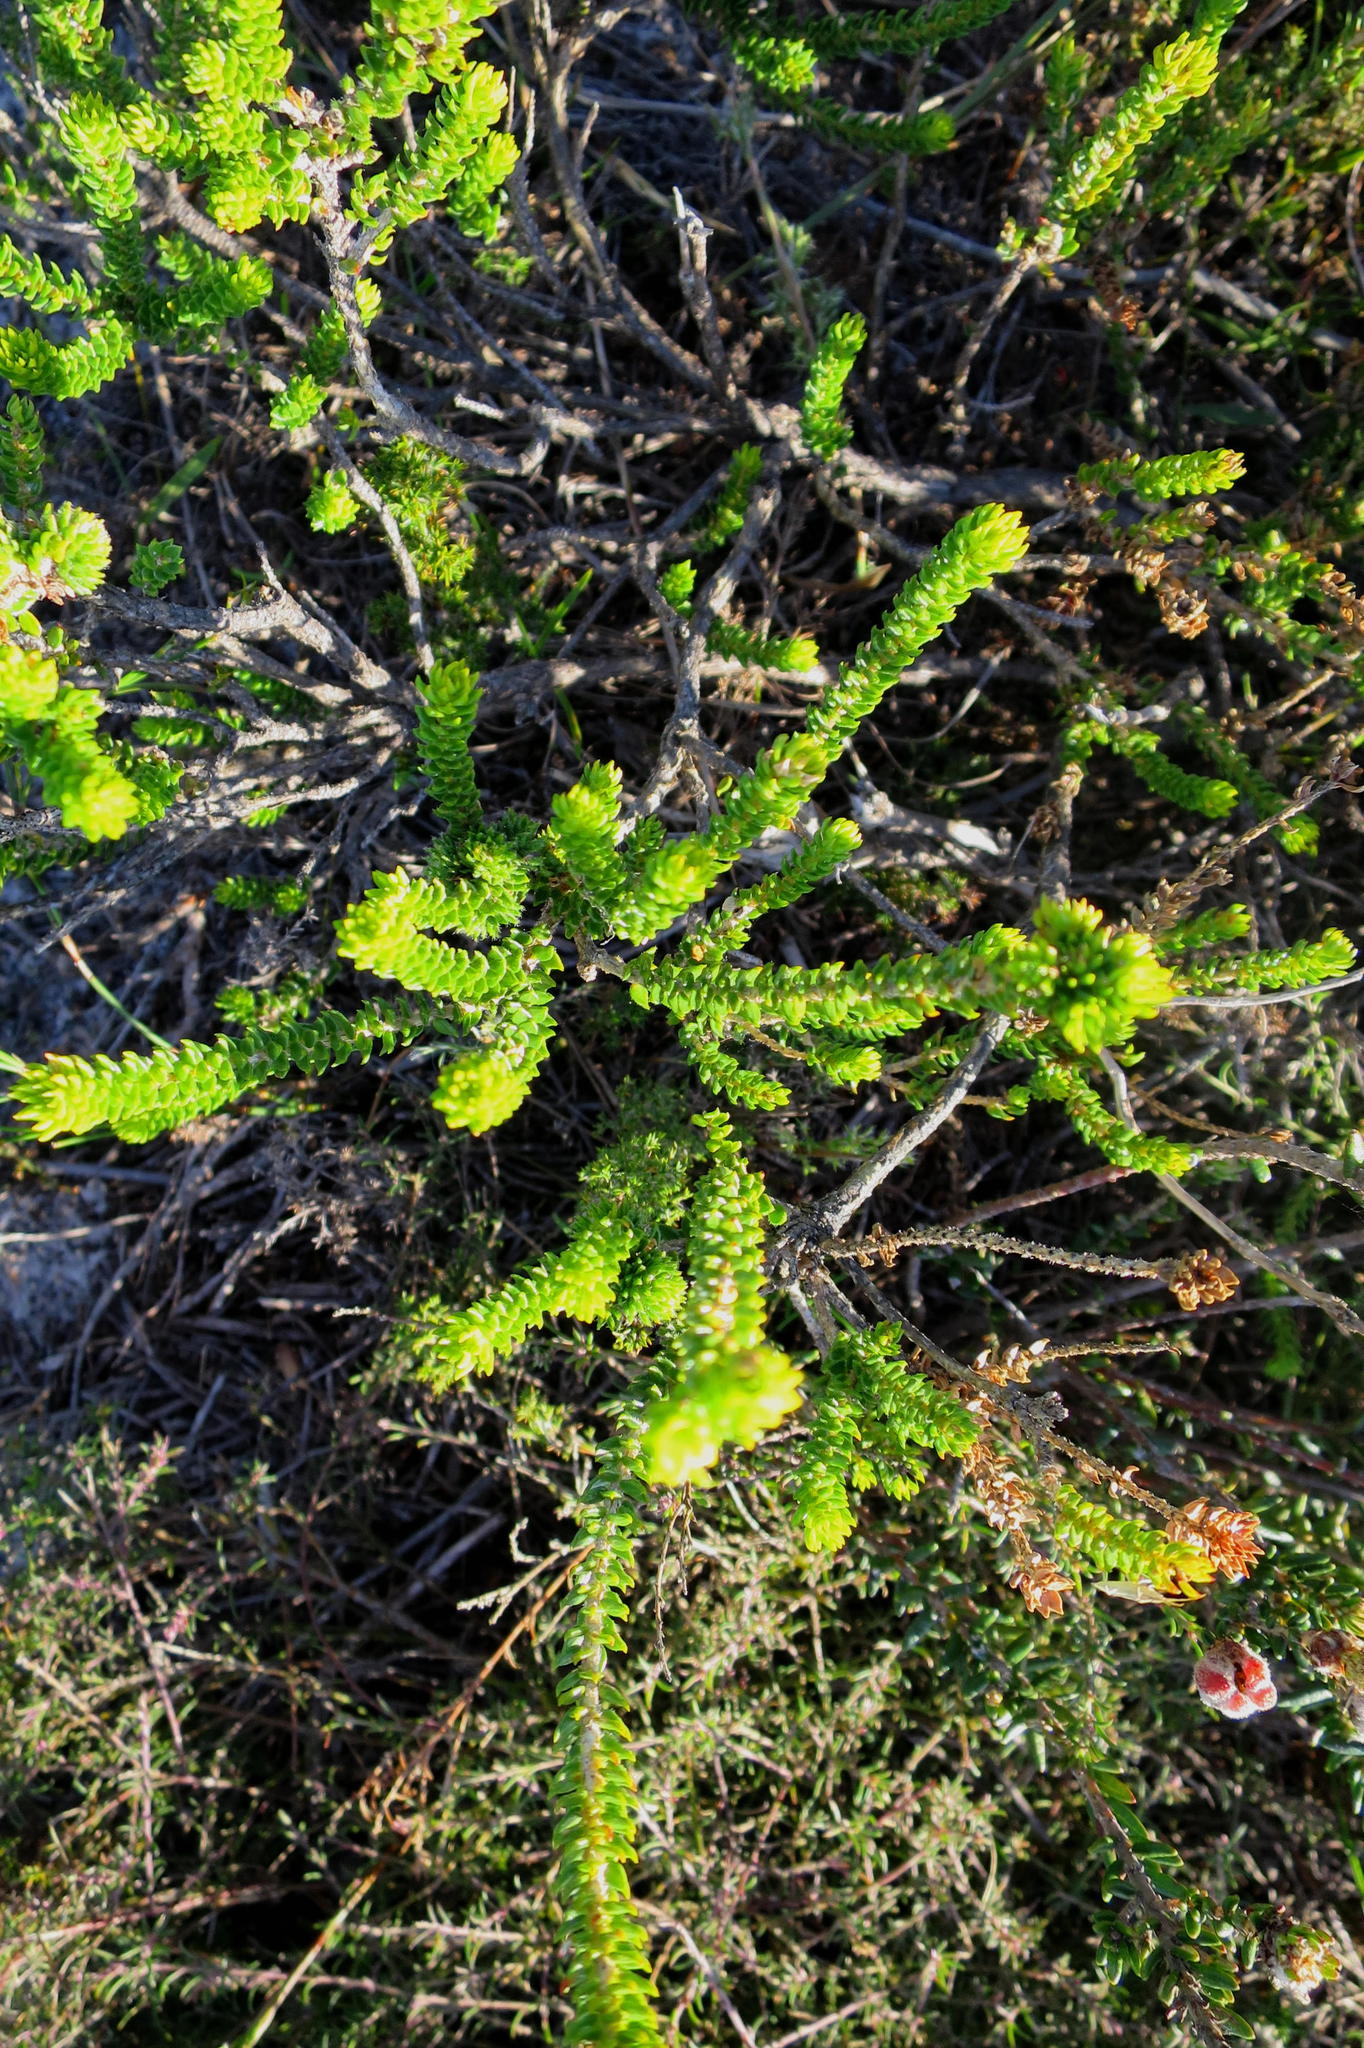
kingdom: Plantae
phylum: Tracheophyta
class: Magnoliopsida
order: Sapindales
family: Rutaceae
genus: Agathosma
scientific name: Agathosma eriantha
